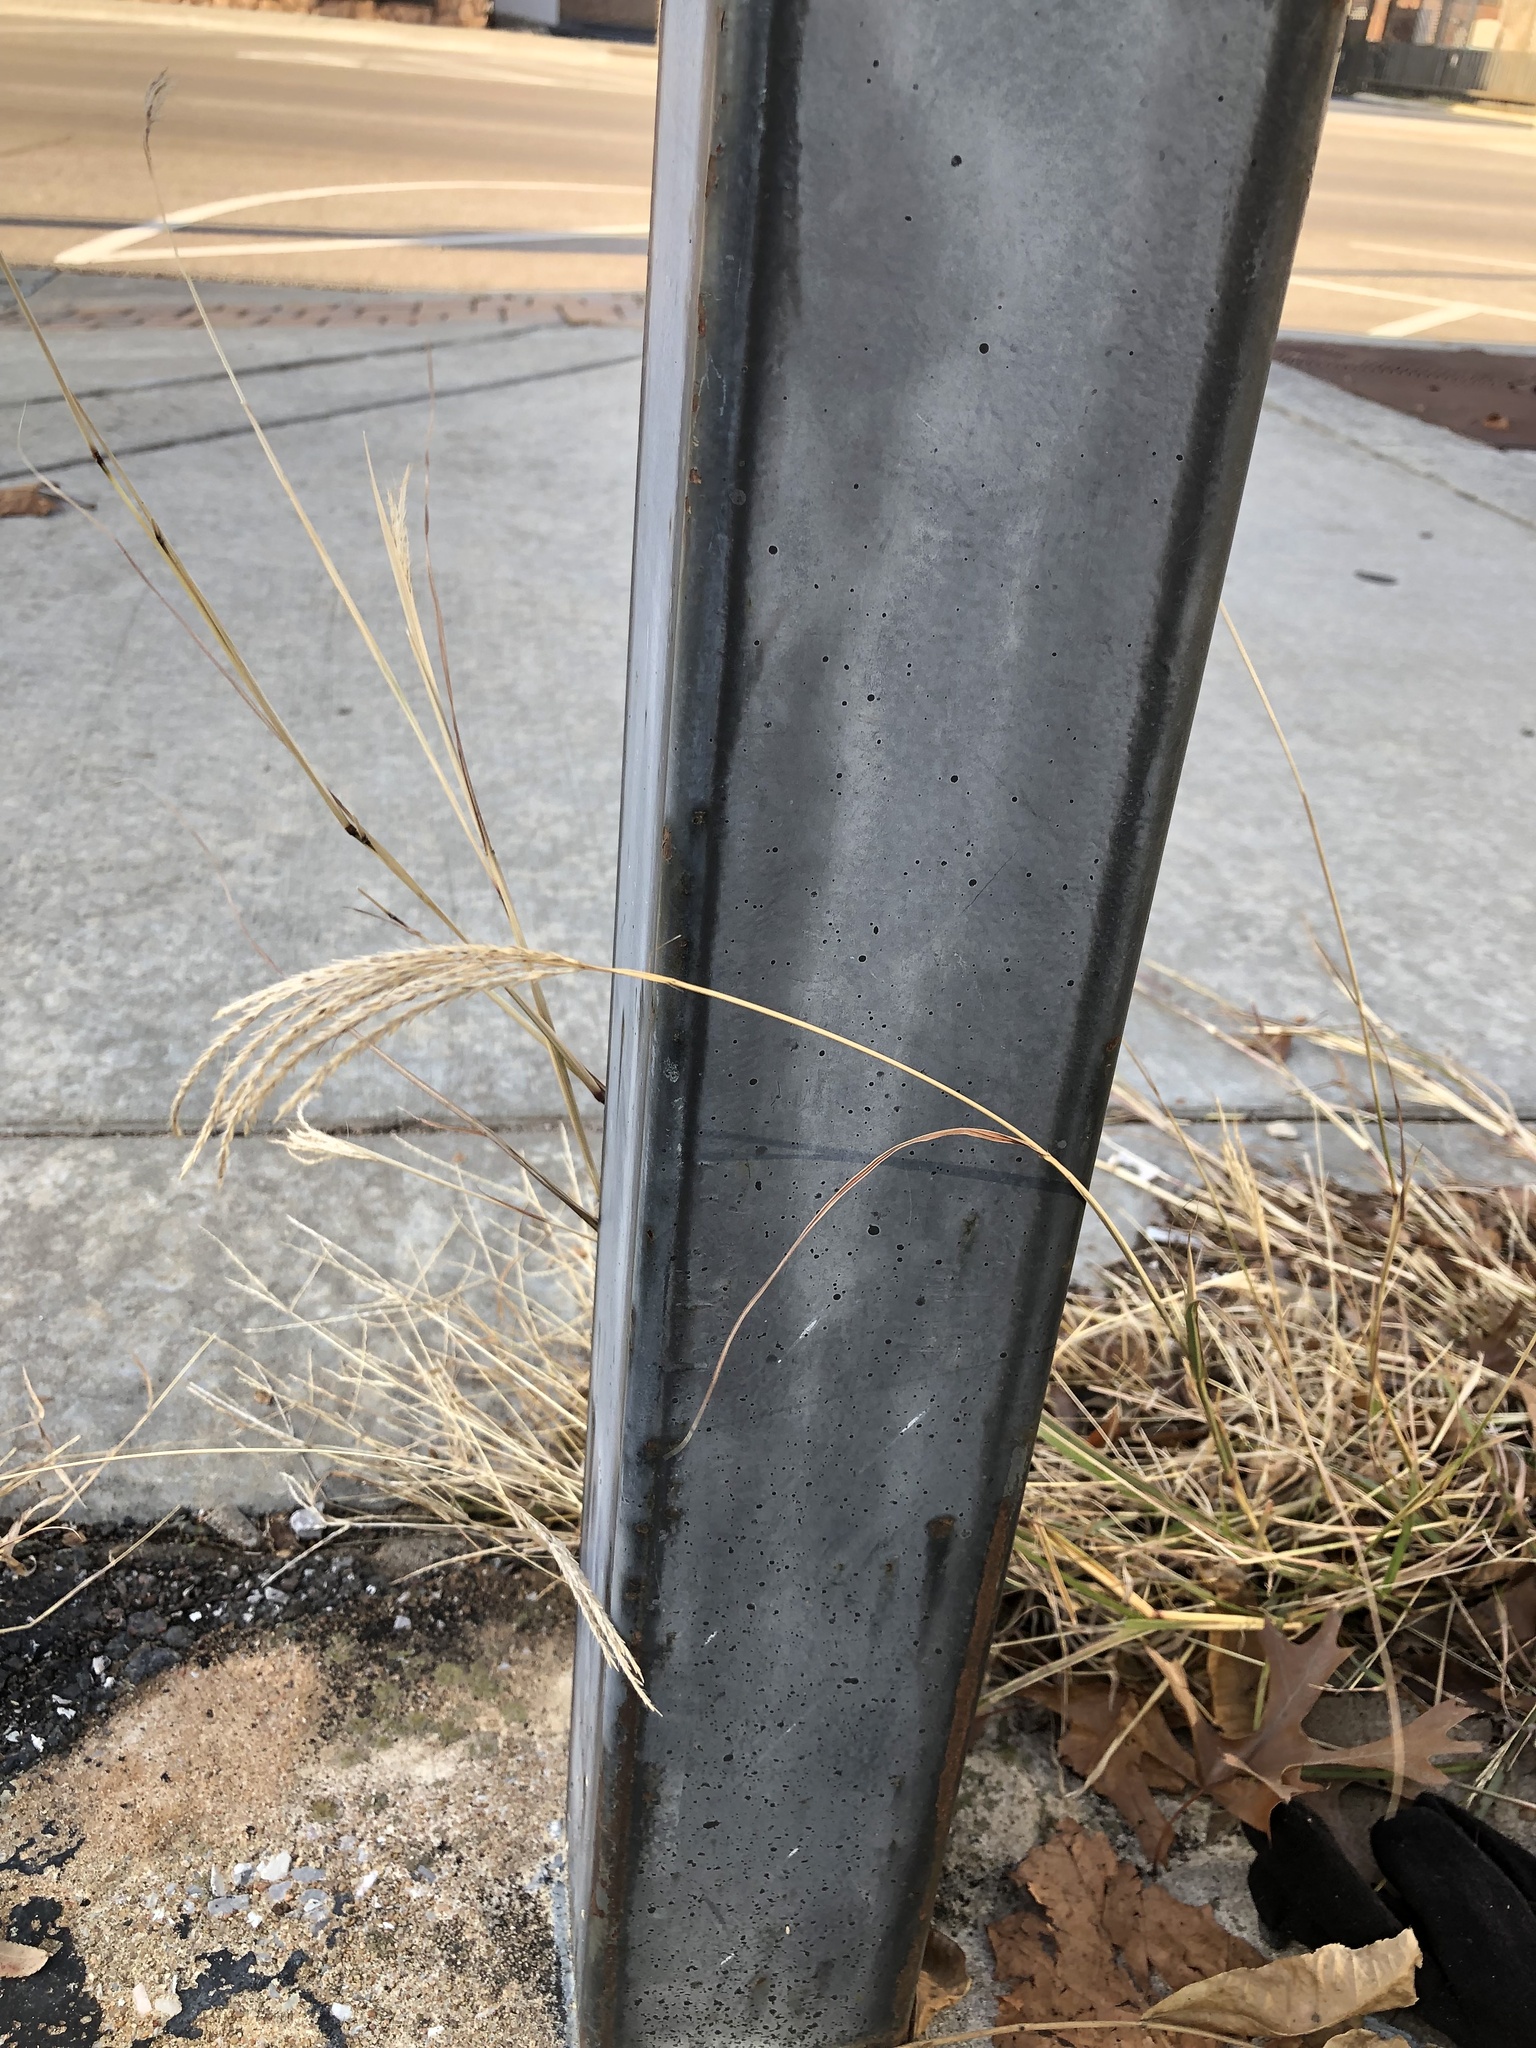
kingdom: Plantae
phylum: Tracheophyta
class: Liliopsida
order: Poales
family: Poaceae
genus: Bothriochloa
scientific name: Bothriochloa ischaemum
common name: Yellow bluestem
